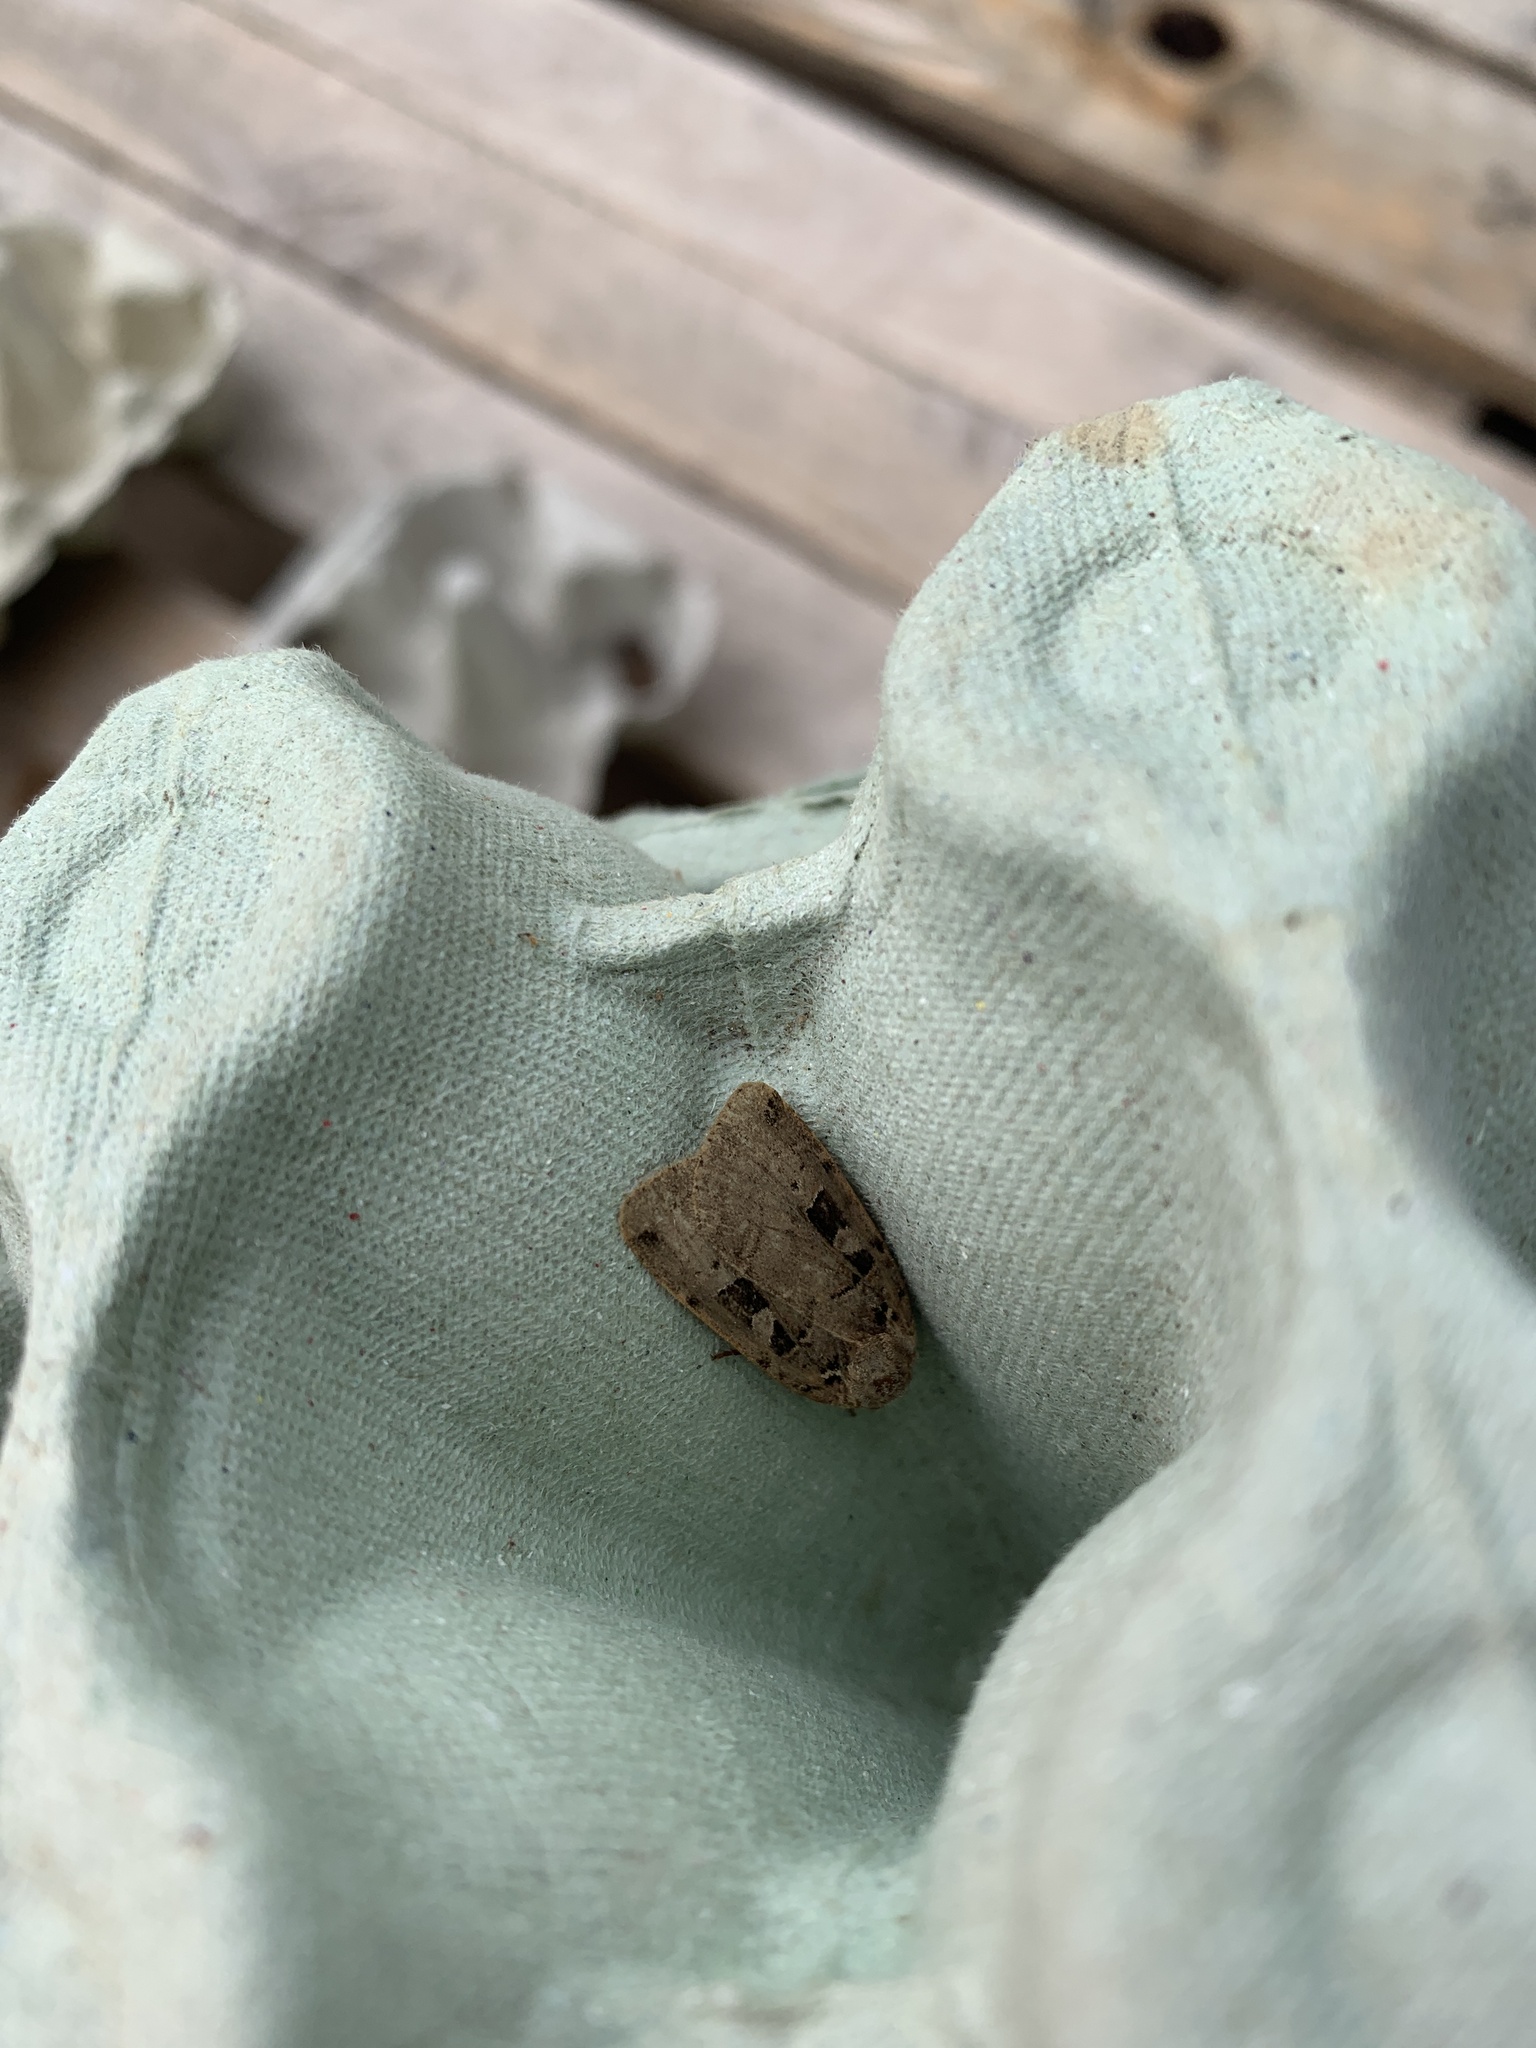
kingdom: Animalia
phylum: Arthropoda
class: Insecta
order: Lepidoptera
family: Noctuidae
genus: Xestia
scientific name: Xestia triangulum
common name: Double square-spot
